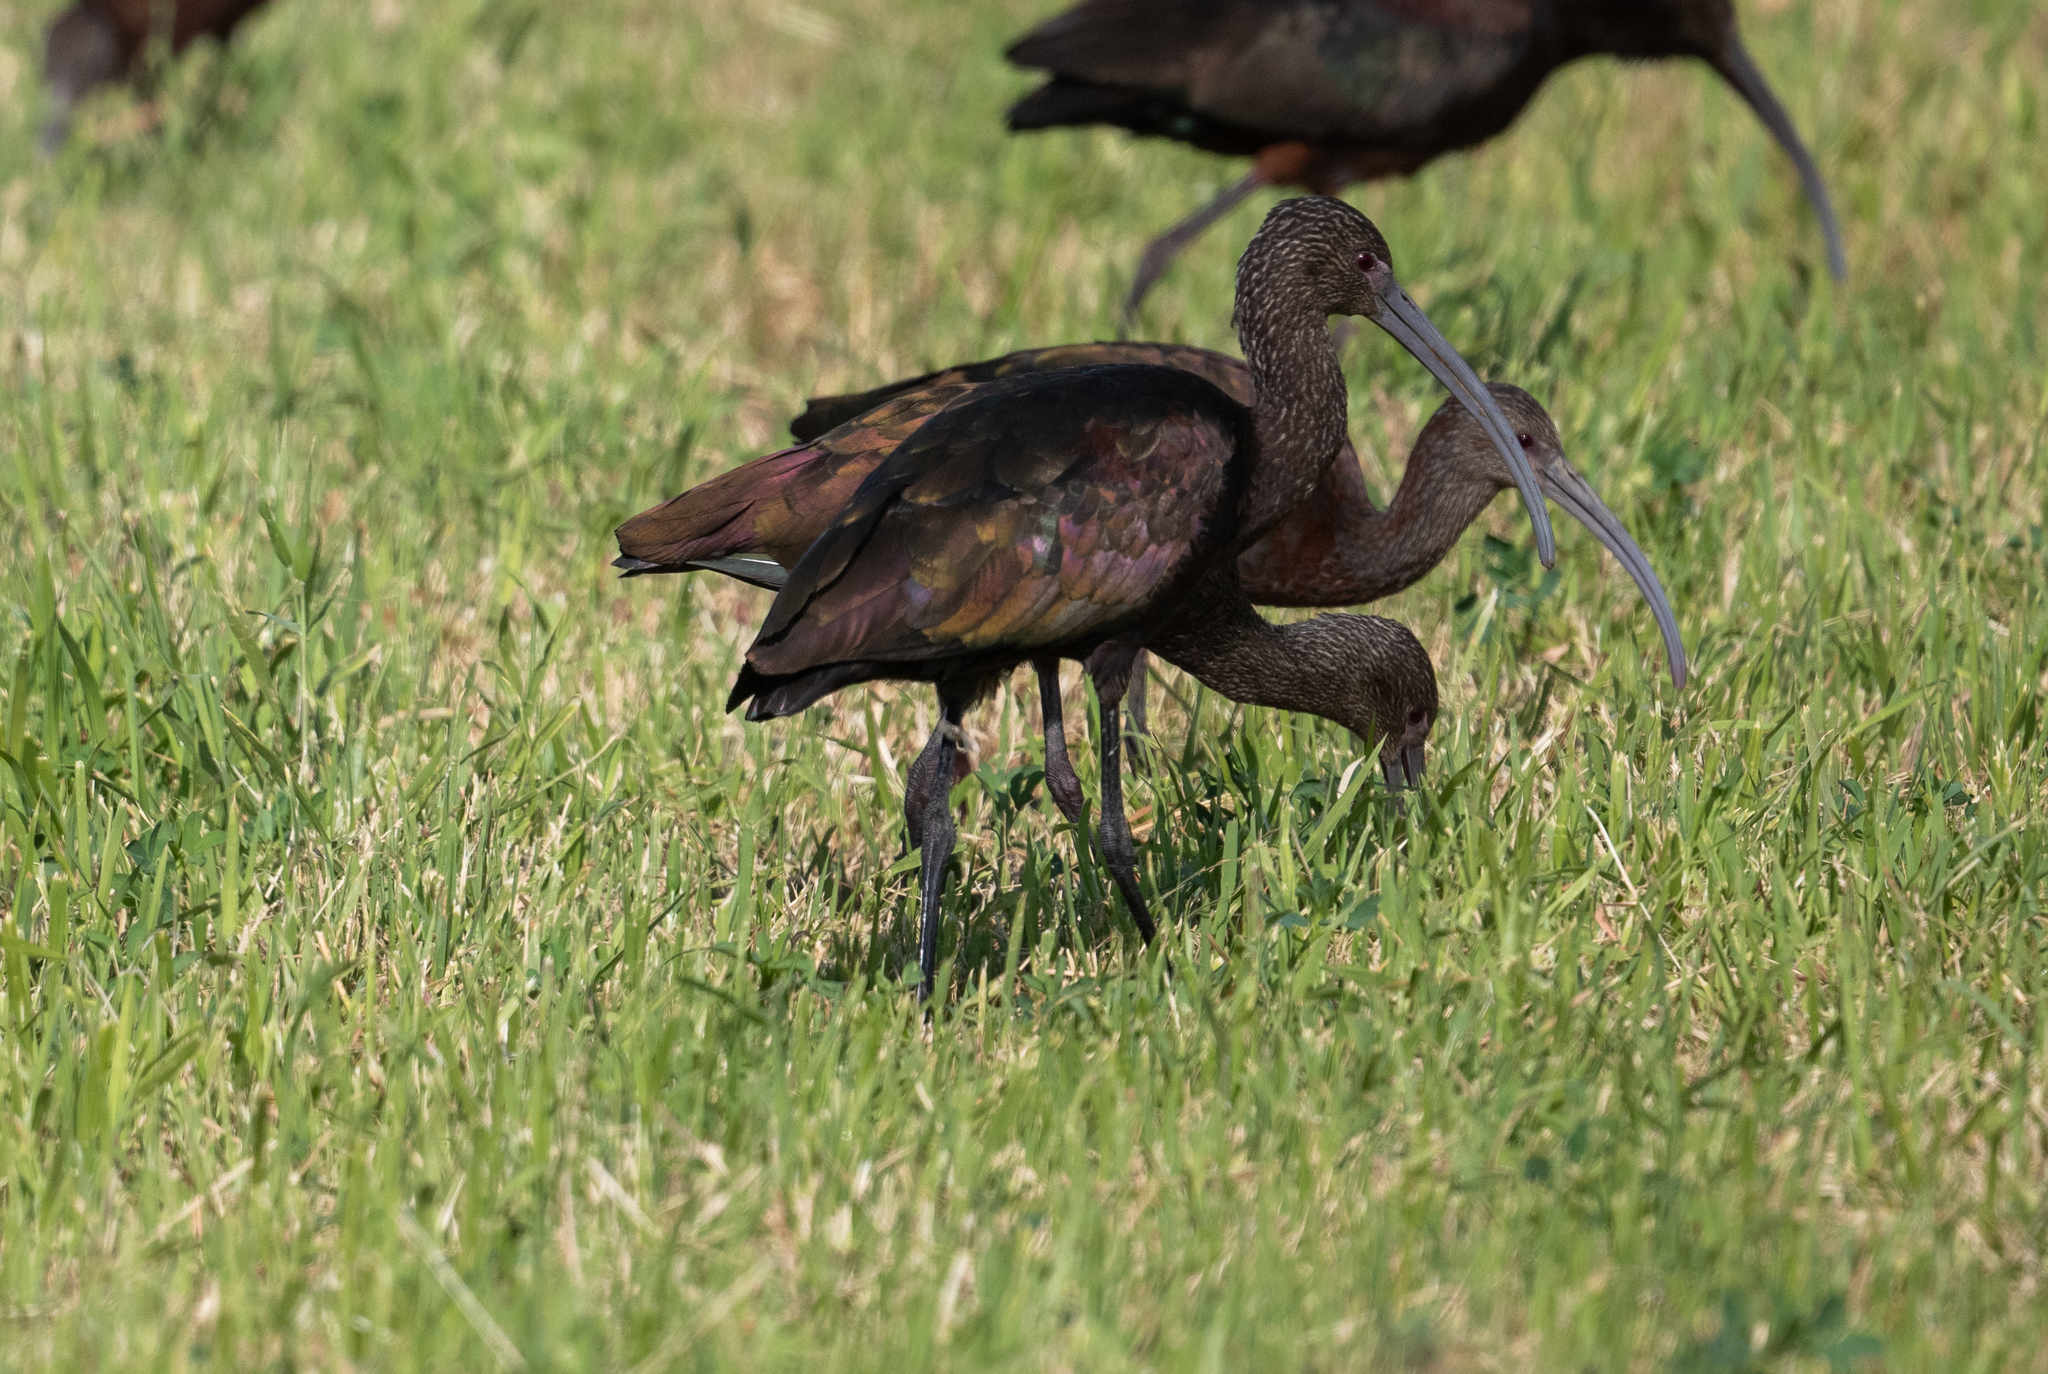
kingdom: Animalia
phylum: Chordata
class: Aves
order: Pelecaniformes
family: Threskiornithidae
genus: Plegadis
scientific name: Plegadis chihi
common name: White-faced ibis
